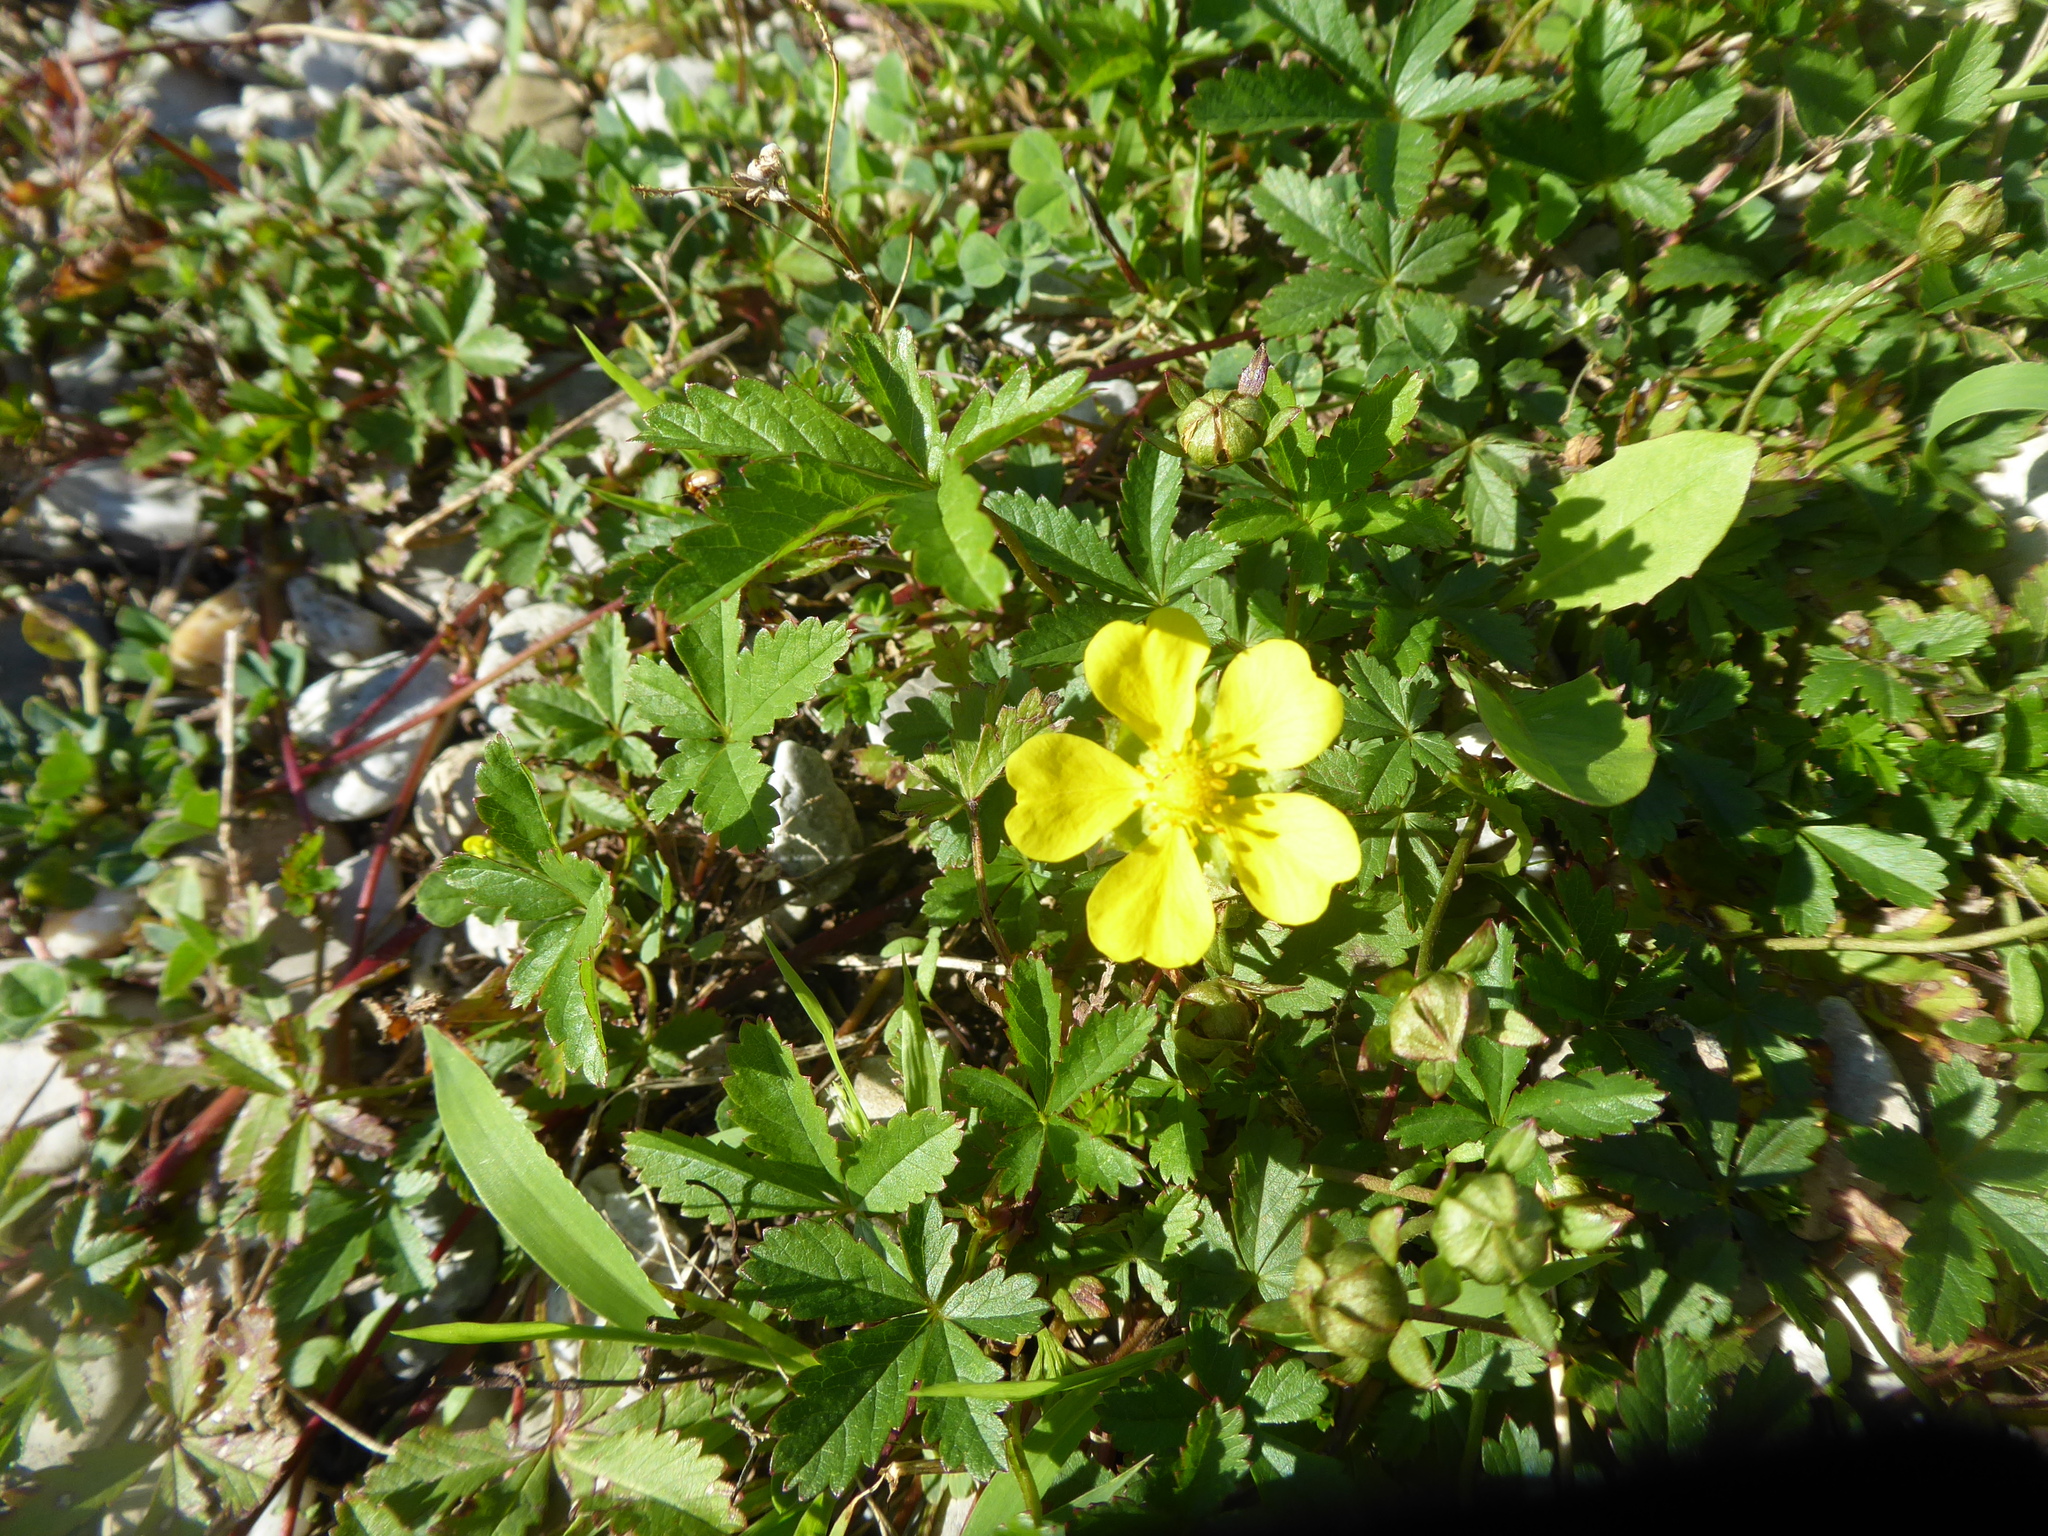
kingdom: Plantae
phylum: Tracheophyta
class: Magnoliopsida
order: Rosales
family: Rosaceae
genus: Potentilla
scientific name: Potentilla reptans
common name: Creeping cinquefoil
